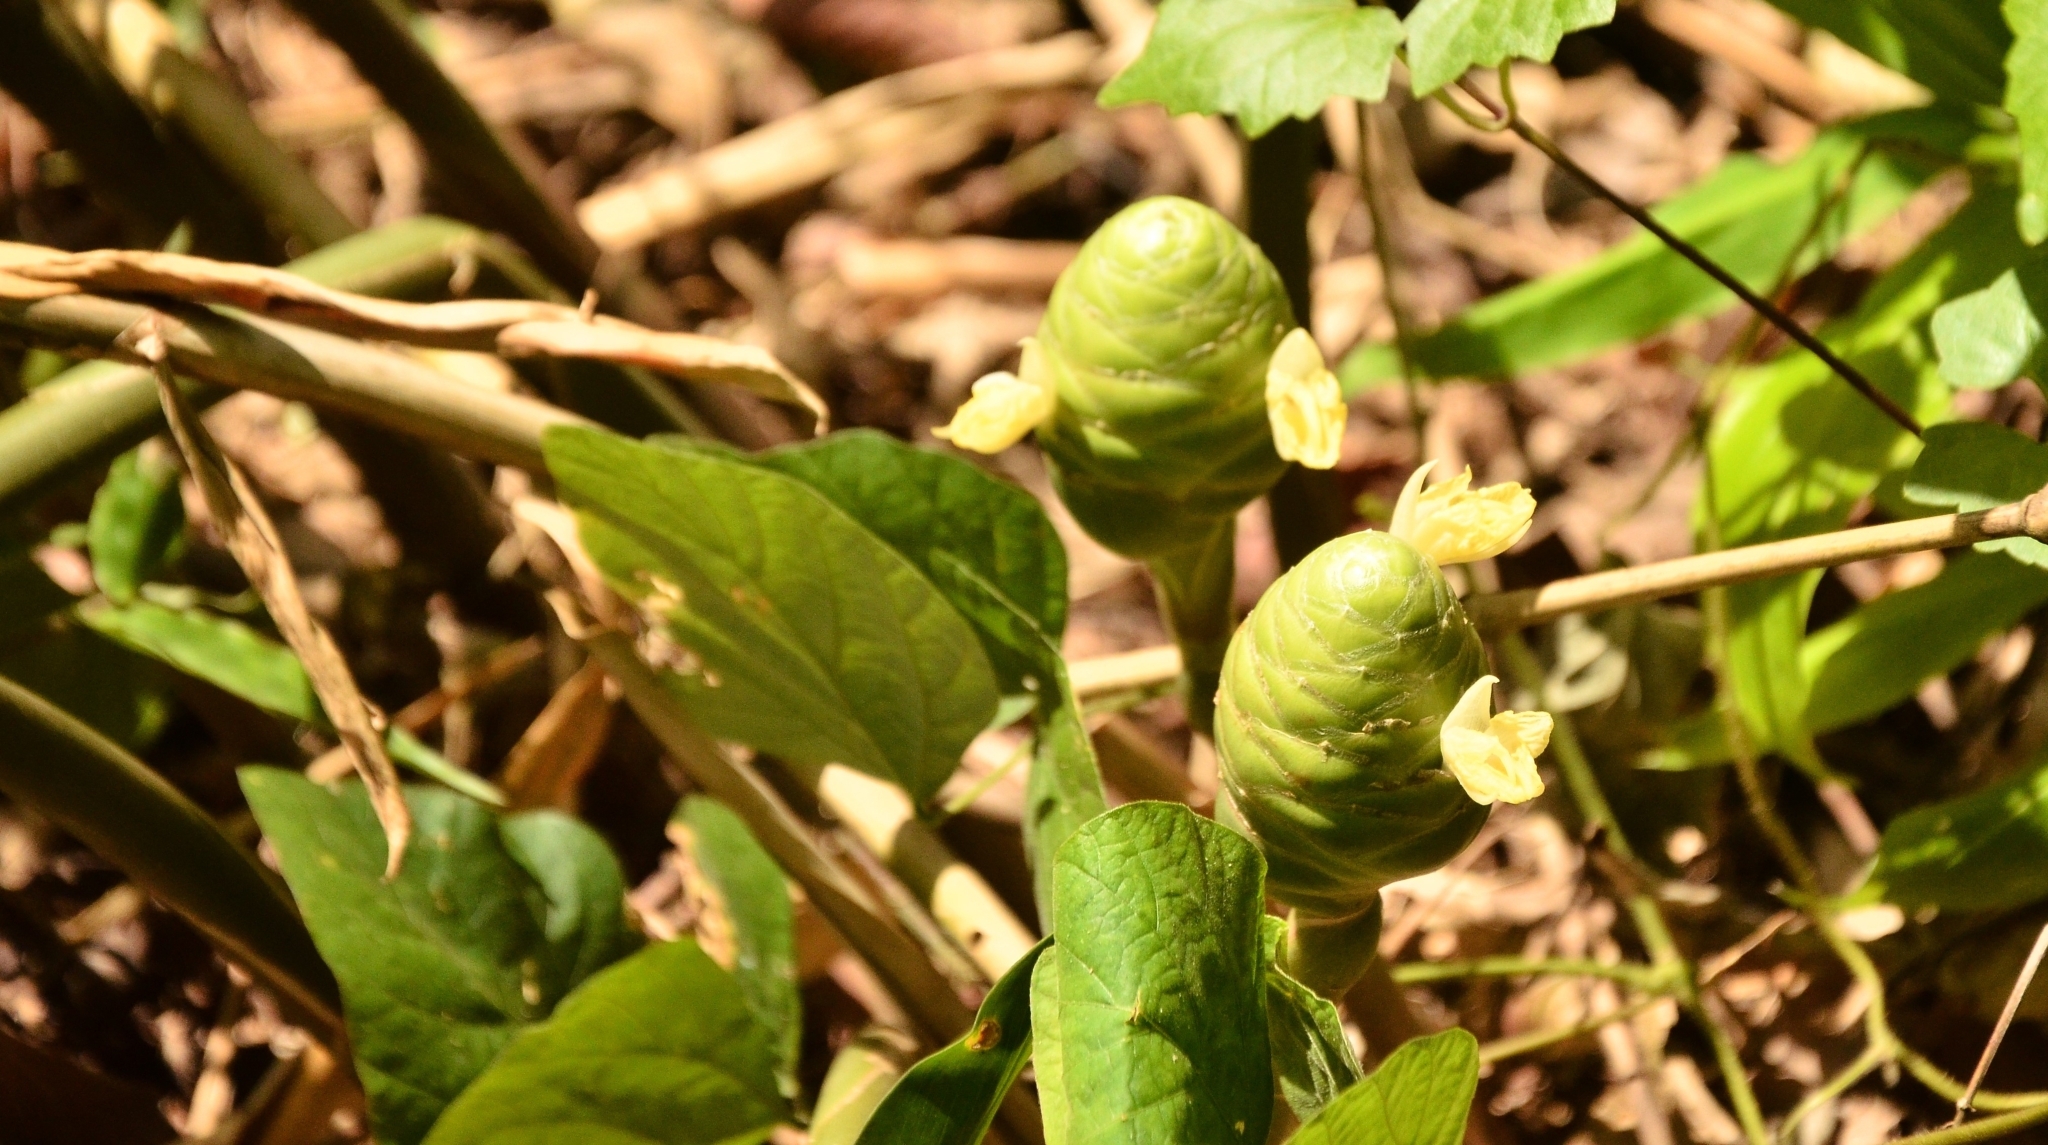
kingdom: Plantae
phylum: Tracheophyta
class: Liliopsida
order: Zingiberales
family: Zingiberaceae
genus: Zingiber
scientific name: Zingiber zerumbet
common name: Bitter ginger
